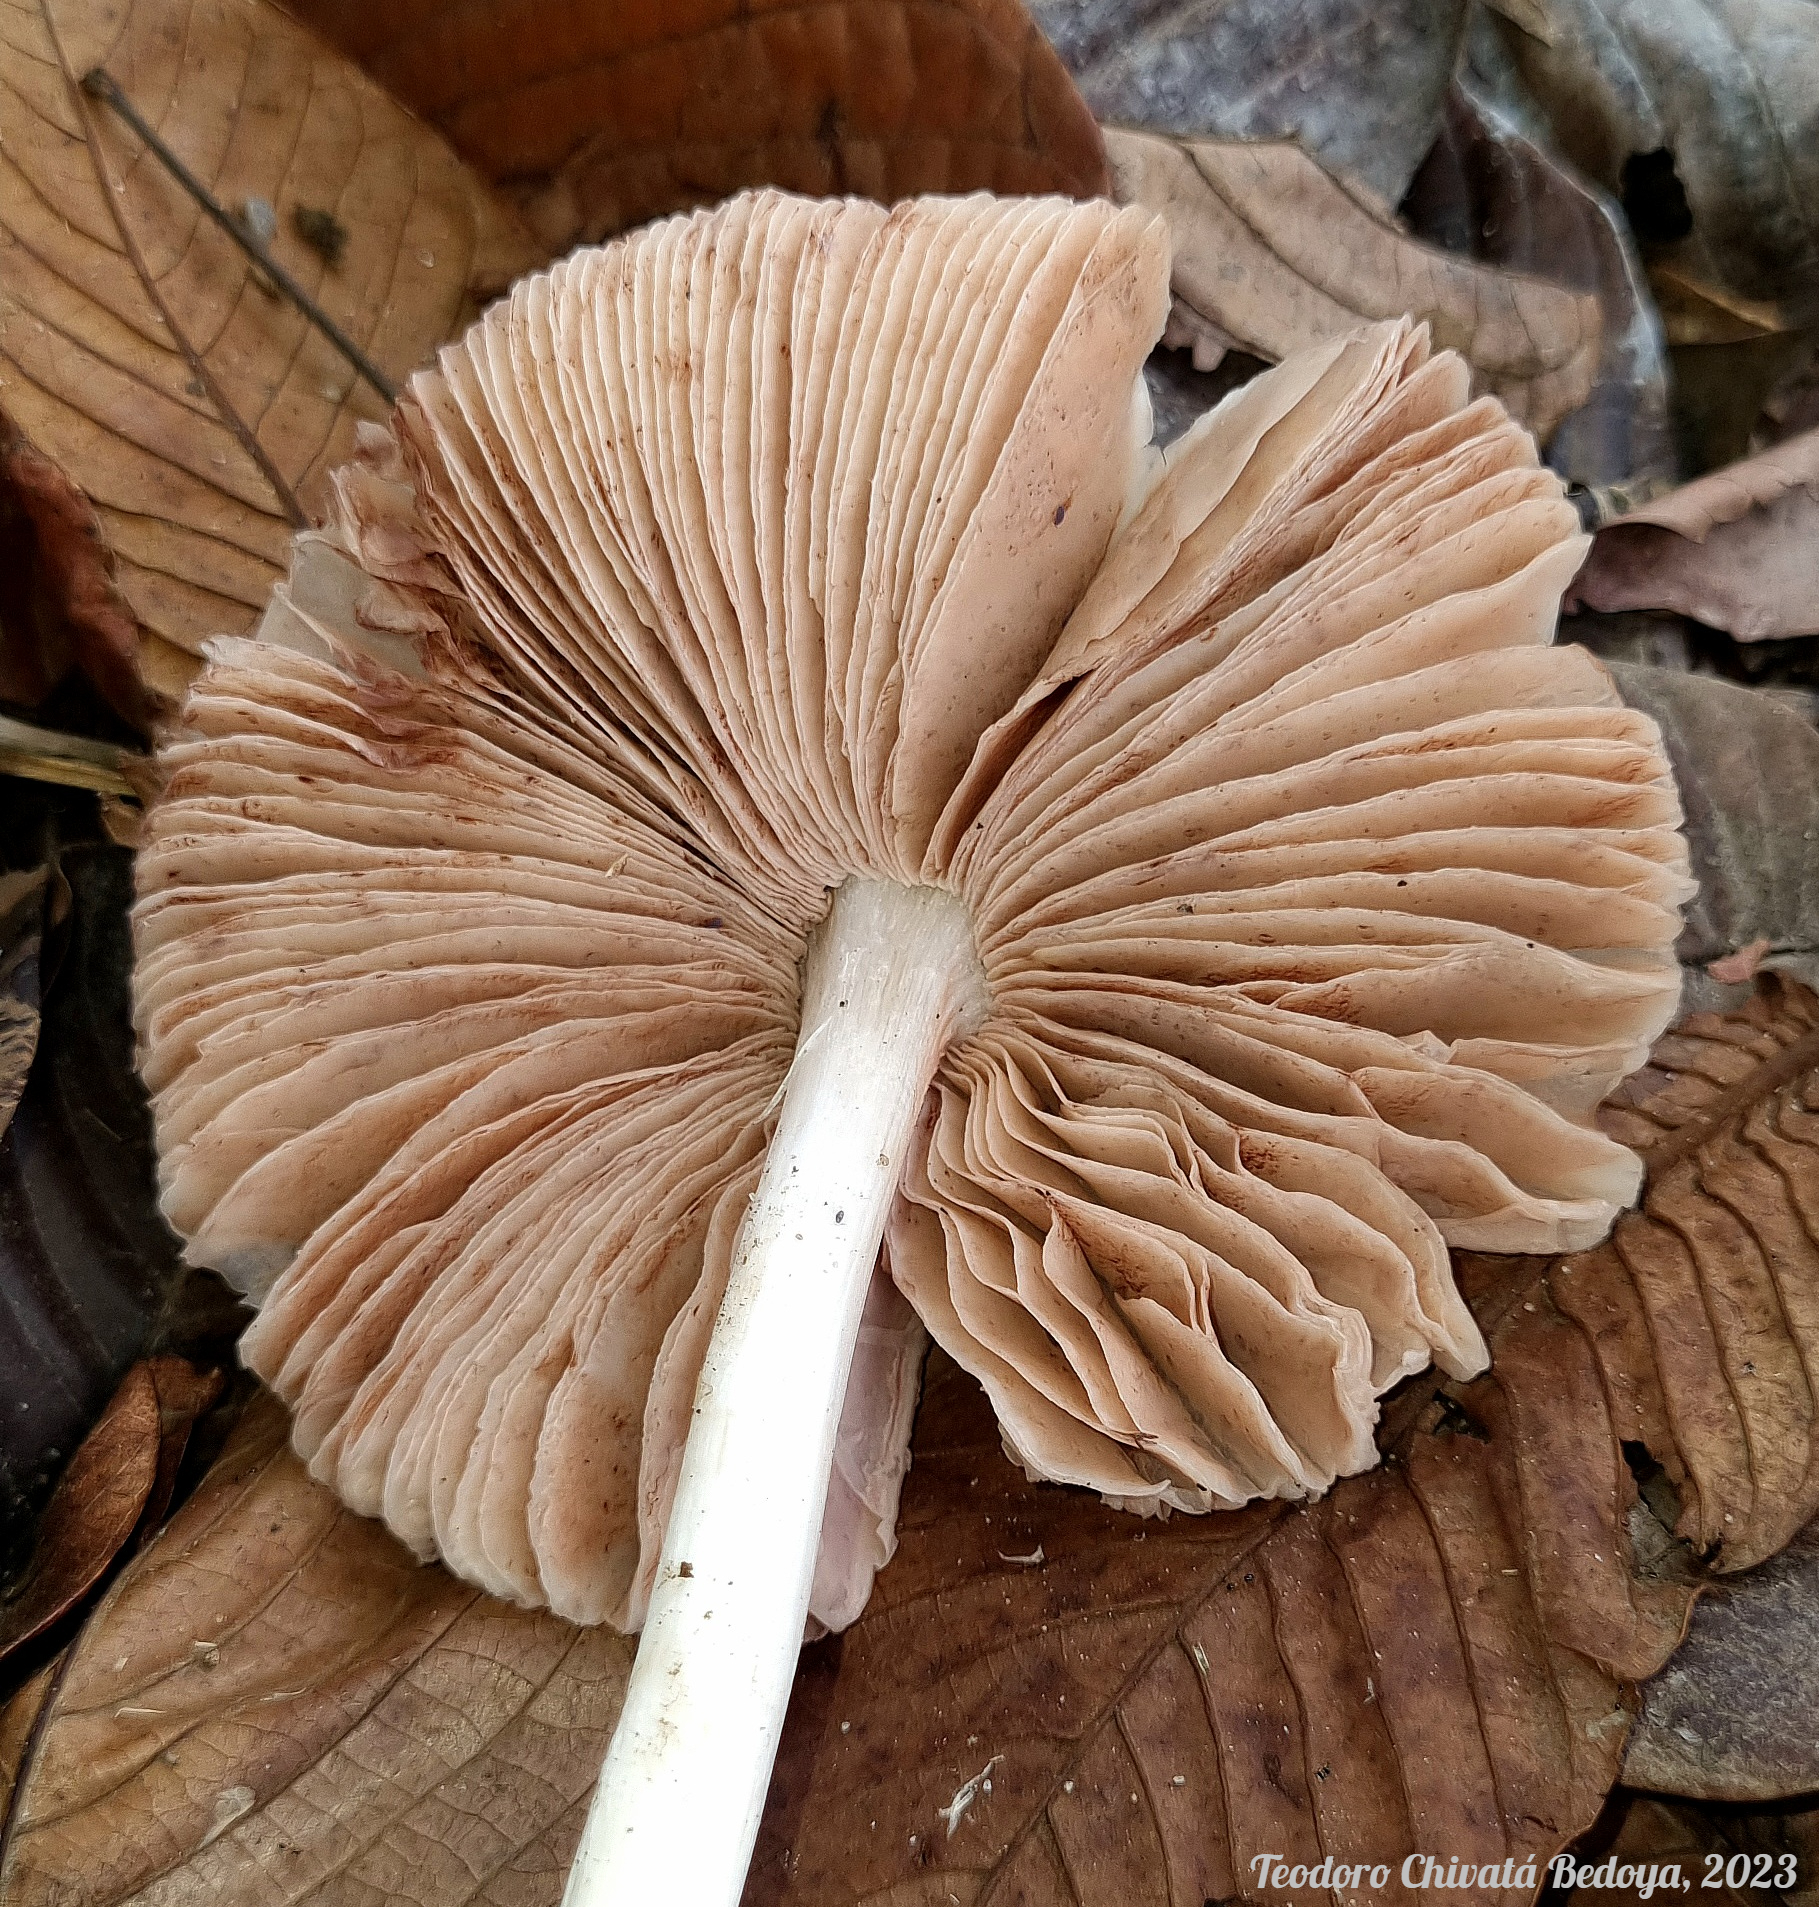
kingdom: Fungi
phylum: Basidiomycota
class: Agaricomycetes
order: Agaricales
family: Pluteaceae
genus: Volvopluteus
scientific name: Volvopluteus earlei
